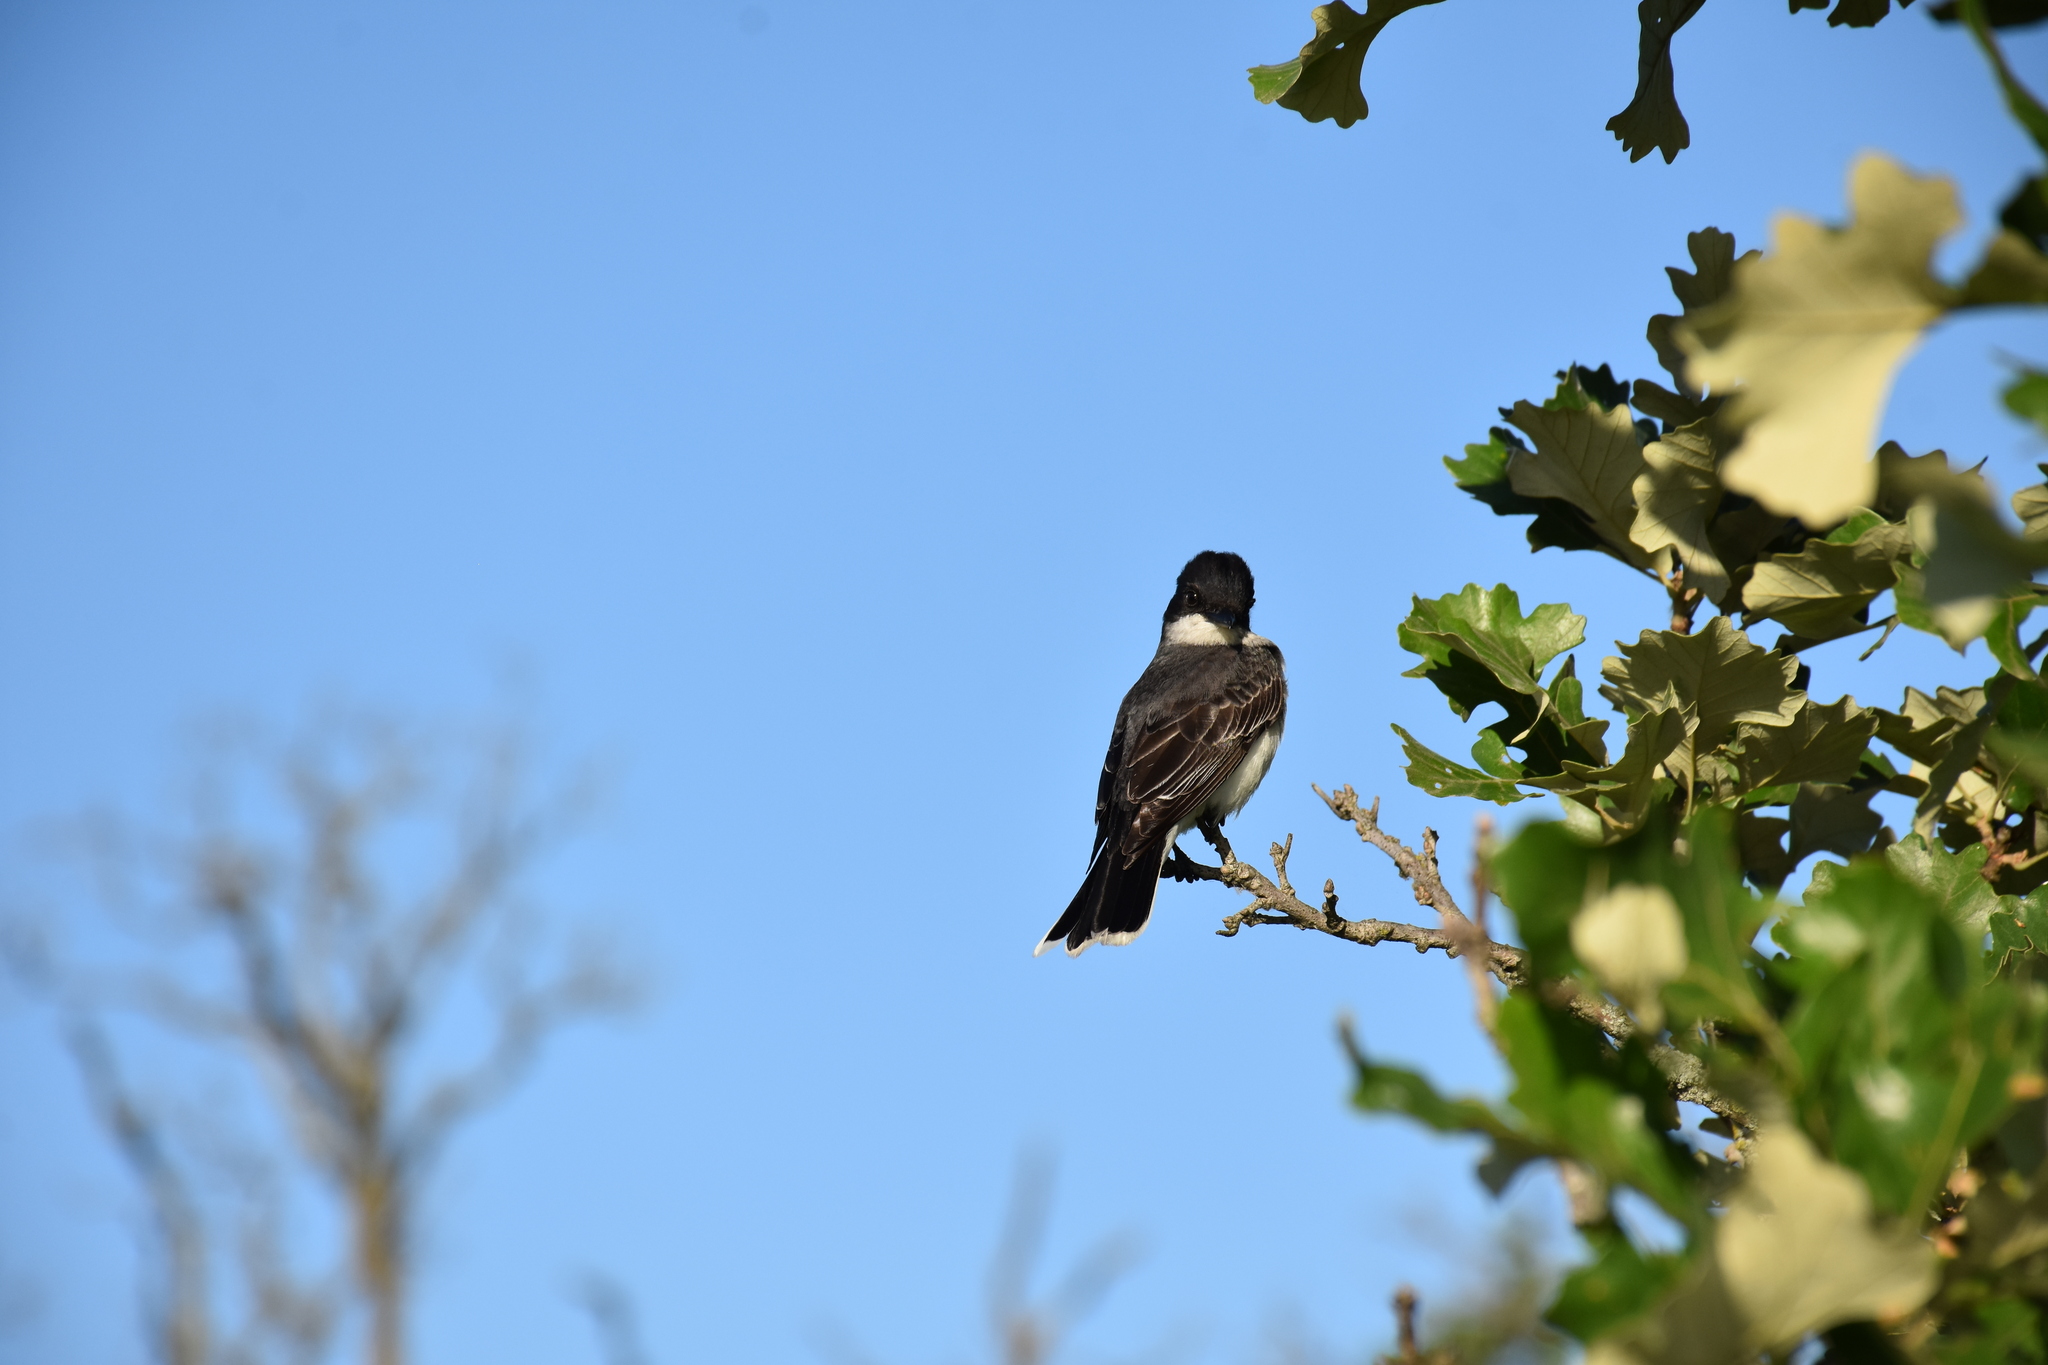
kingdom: Animalia
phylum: Chordata
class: Aves
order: Passeriformes
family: Tyrannidae
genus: Tyrannus
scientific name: Tyrannus tyrannus
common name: Eastern kingbird
